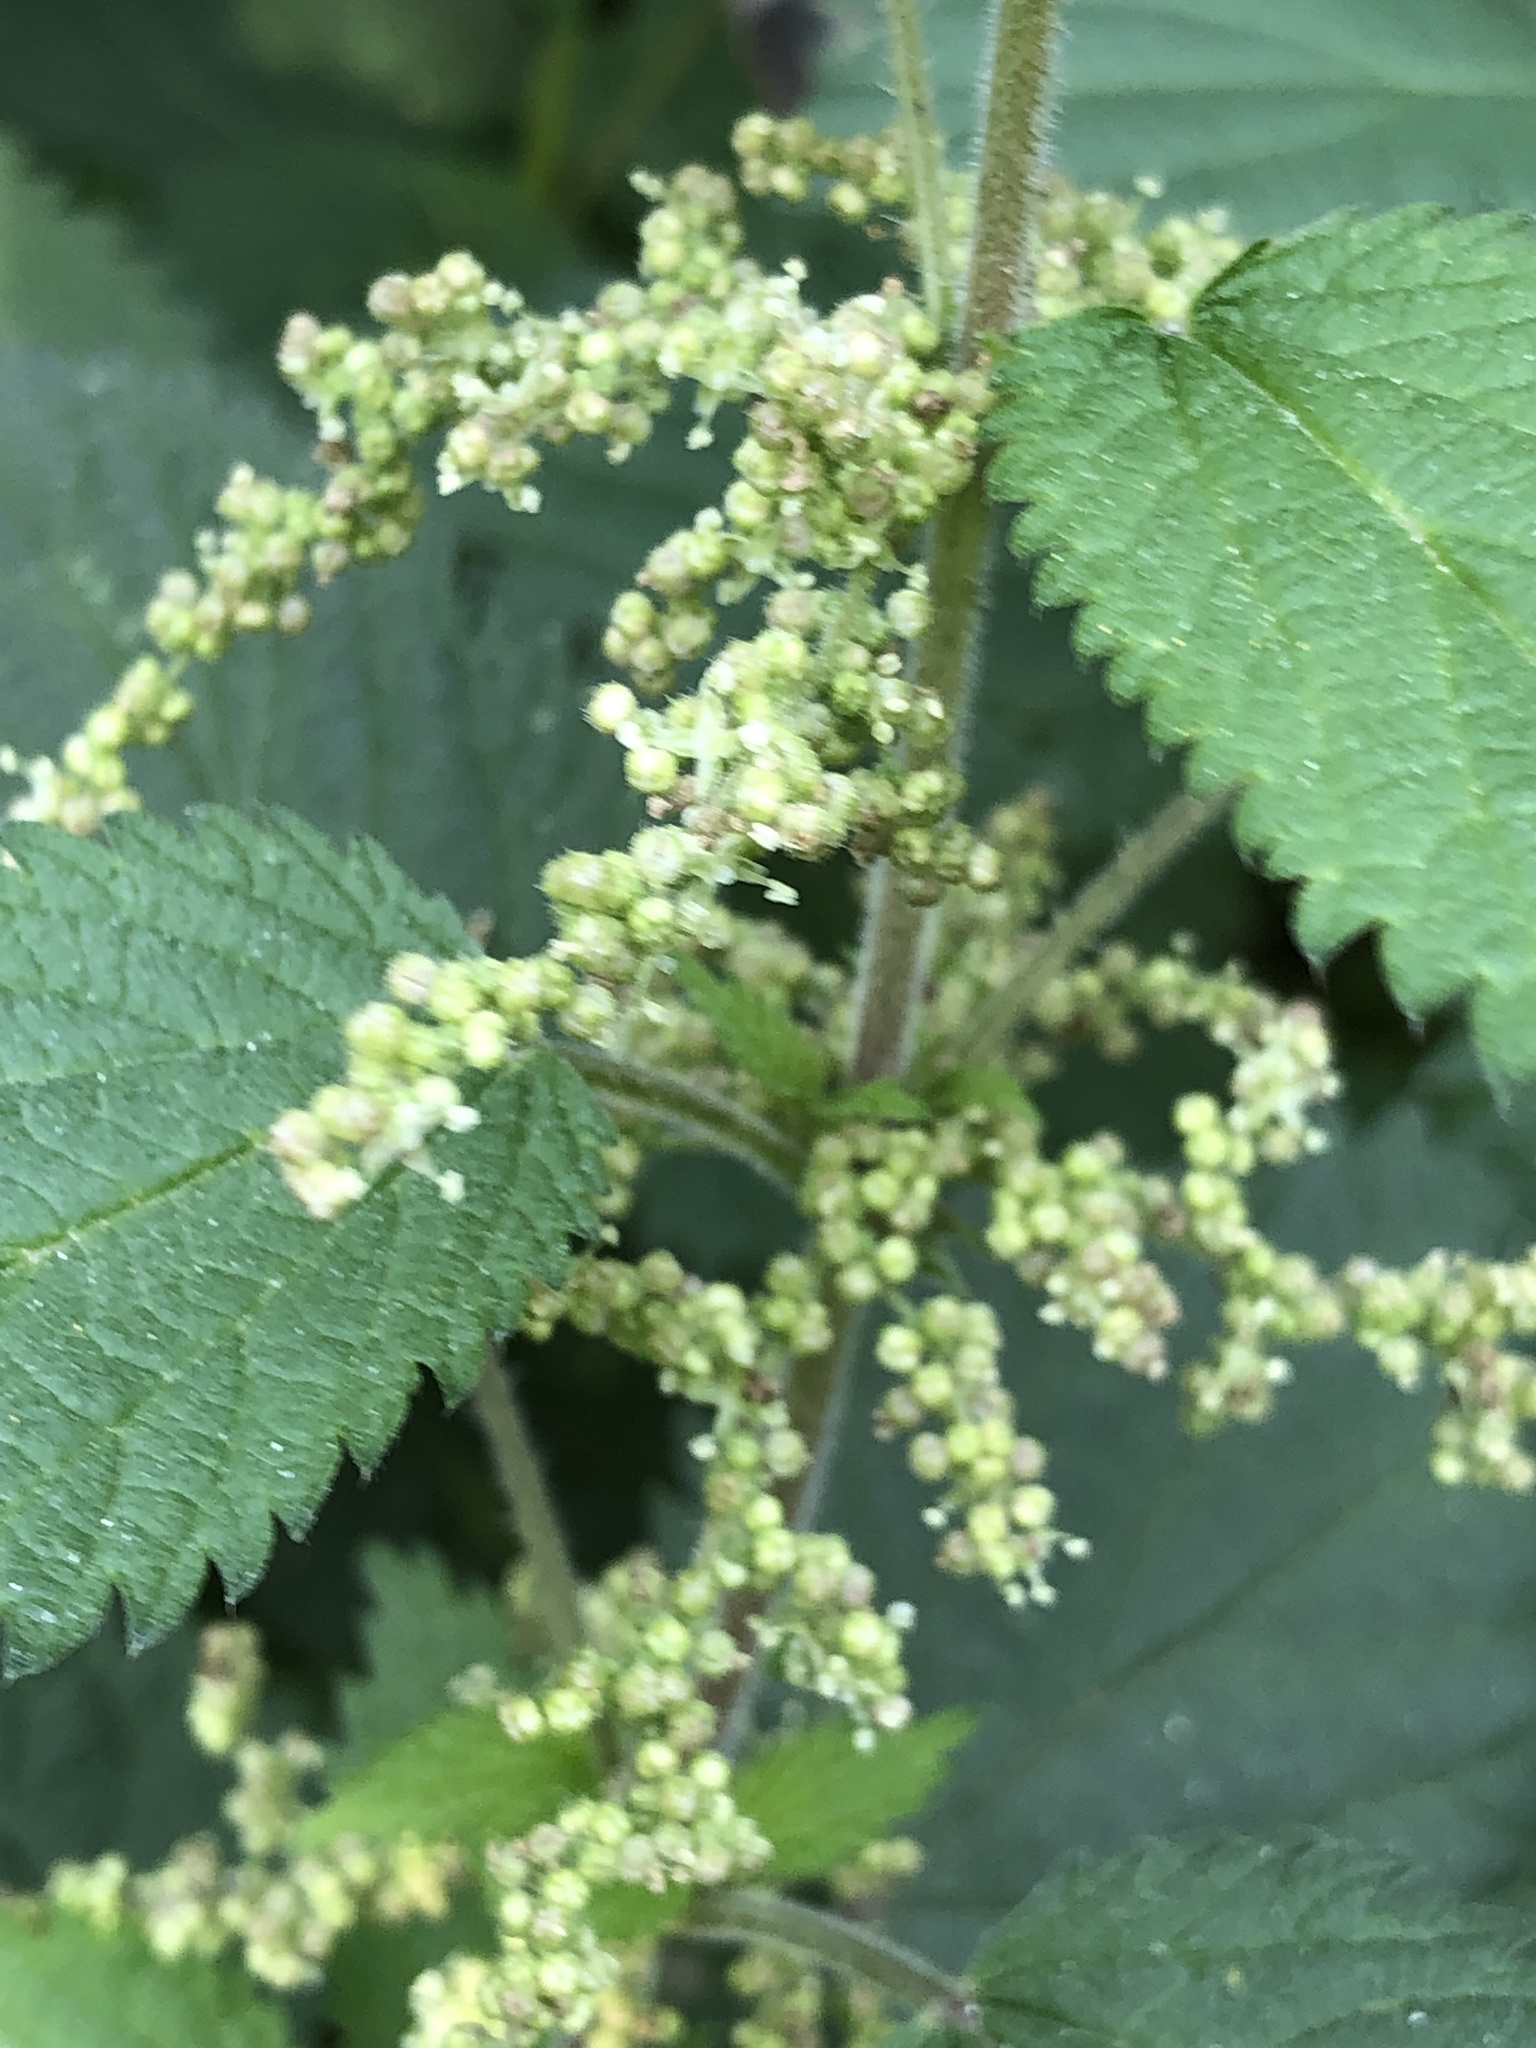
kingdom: Plantae
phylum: Tracheophyta
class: Magnoliopsida
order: Rosales
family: Urticaceae
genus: Urtica
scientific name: Urtica dioica
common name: Common nettle
